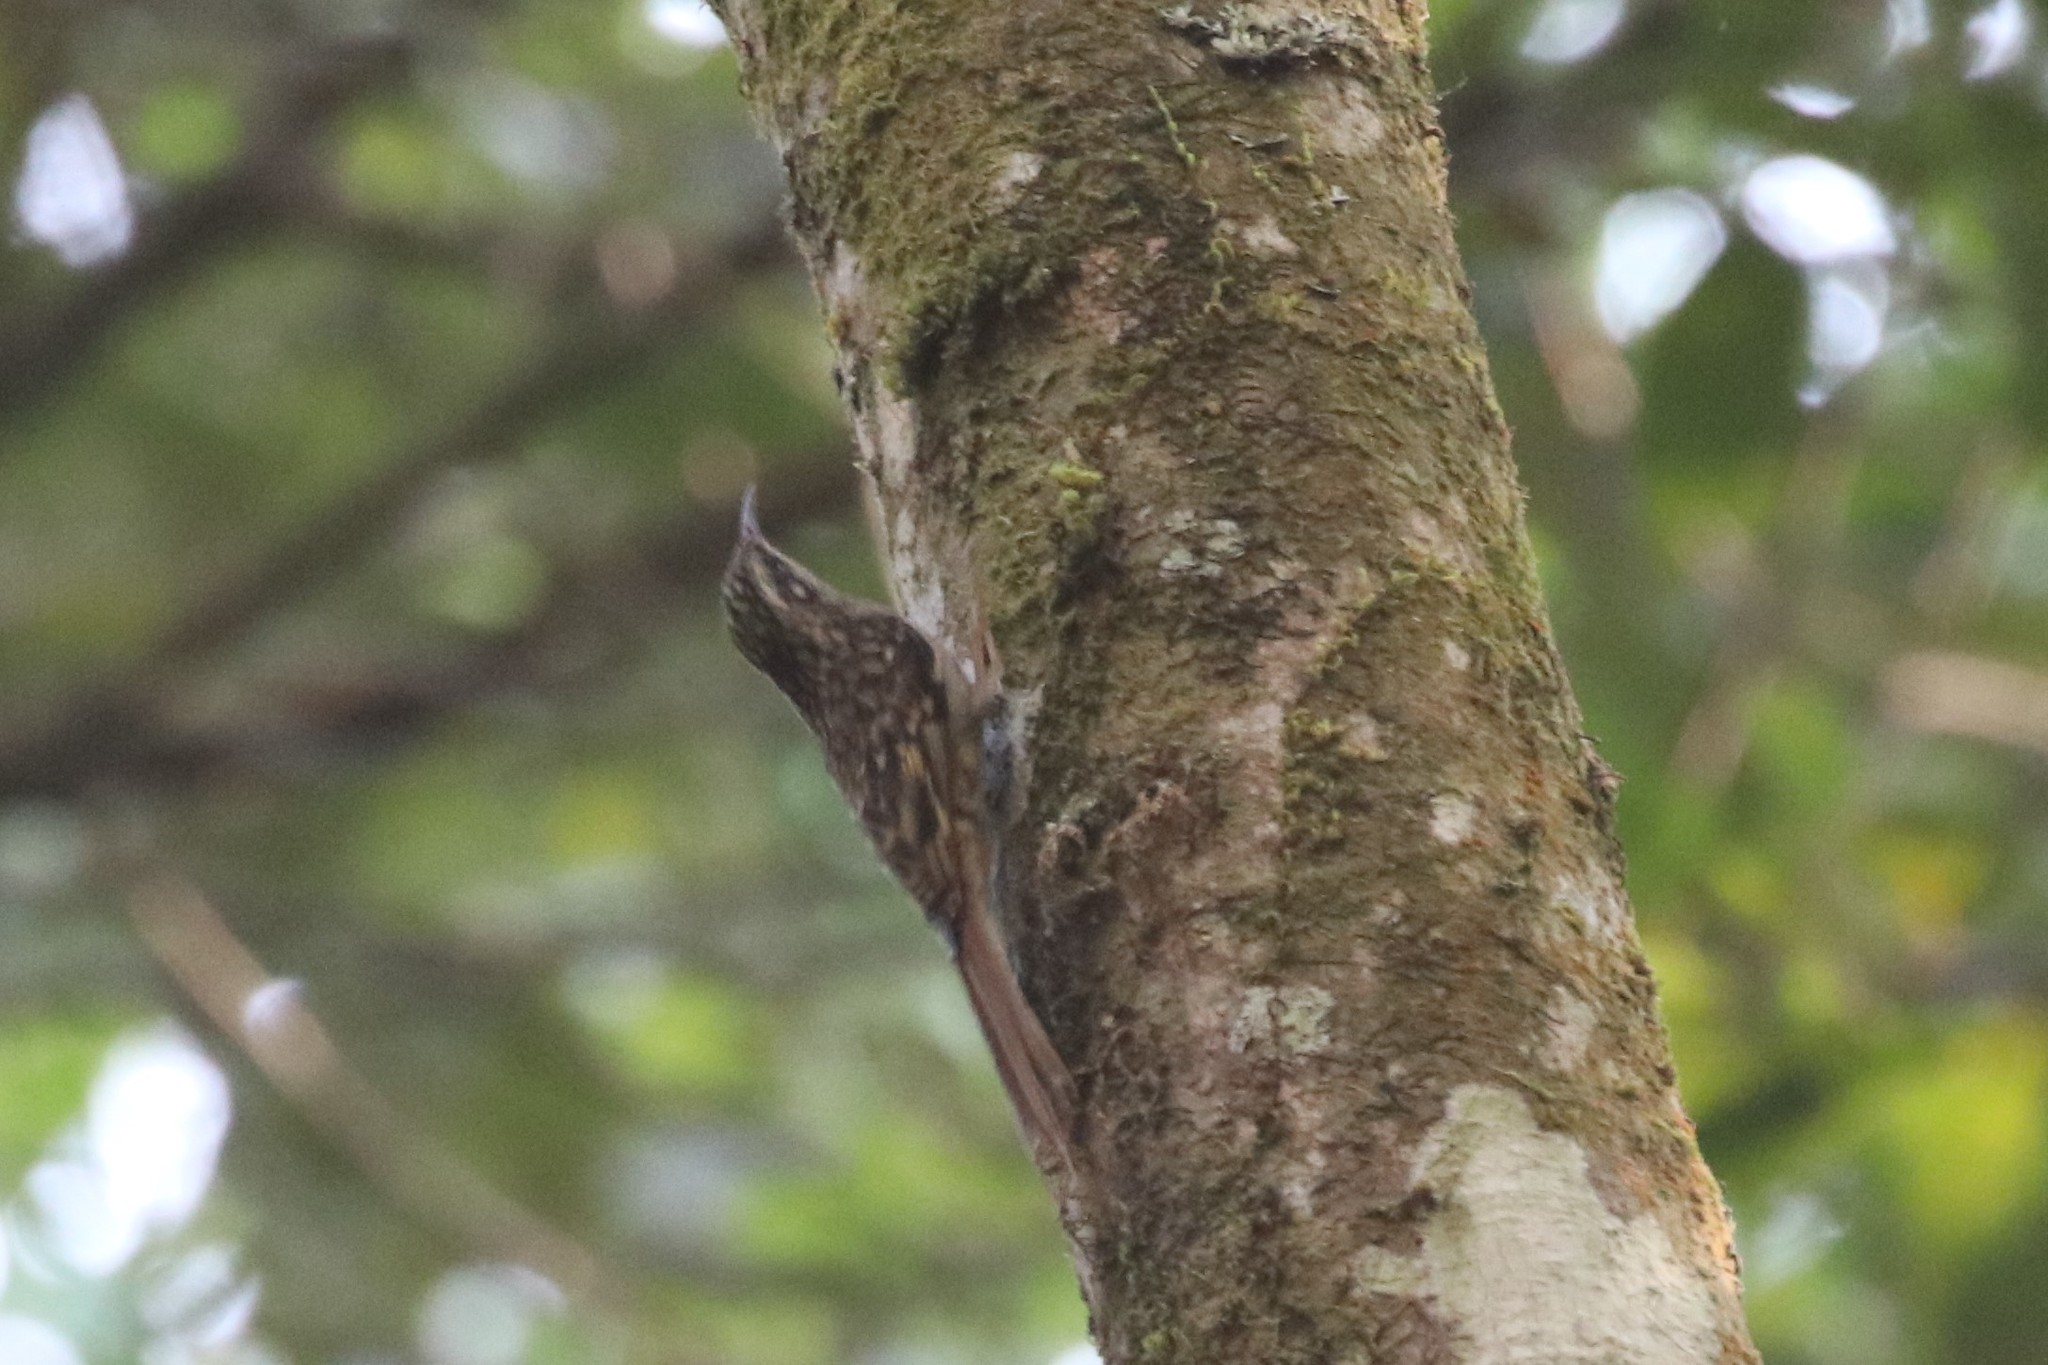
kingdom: Animalia
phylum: Chordata
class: Aves
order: Passeriformes
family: Certhiidae
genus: Certhia
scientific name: Certhia manipurensis
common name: Hume's treecreeper
